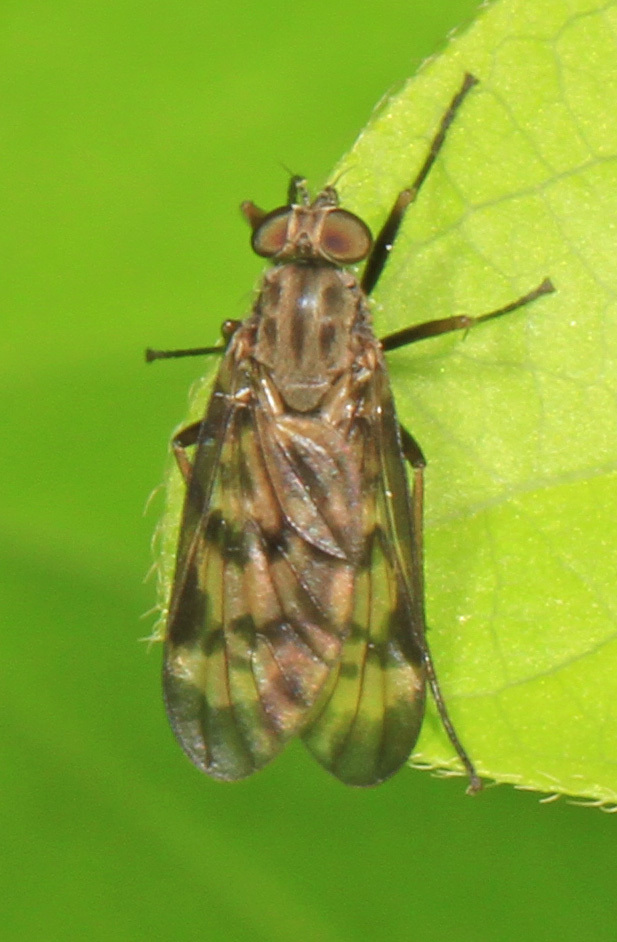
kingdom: Animalia
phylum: Arthropoda
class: Insecta
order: Diptera
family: Rhagionidae
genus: Rhagio
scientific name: Rhagio punctipennis
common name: Lesser variegated snipe fly
